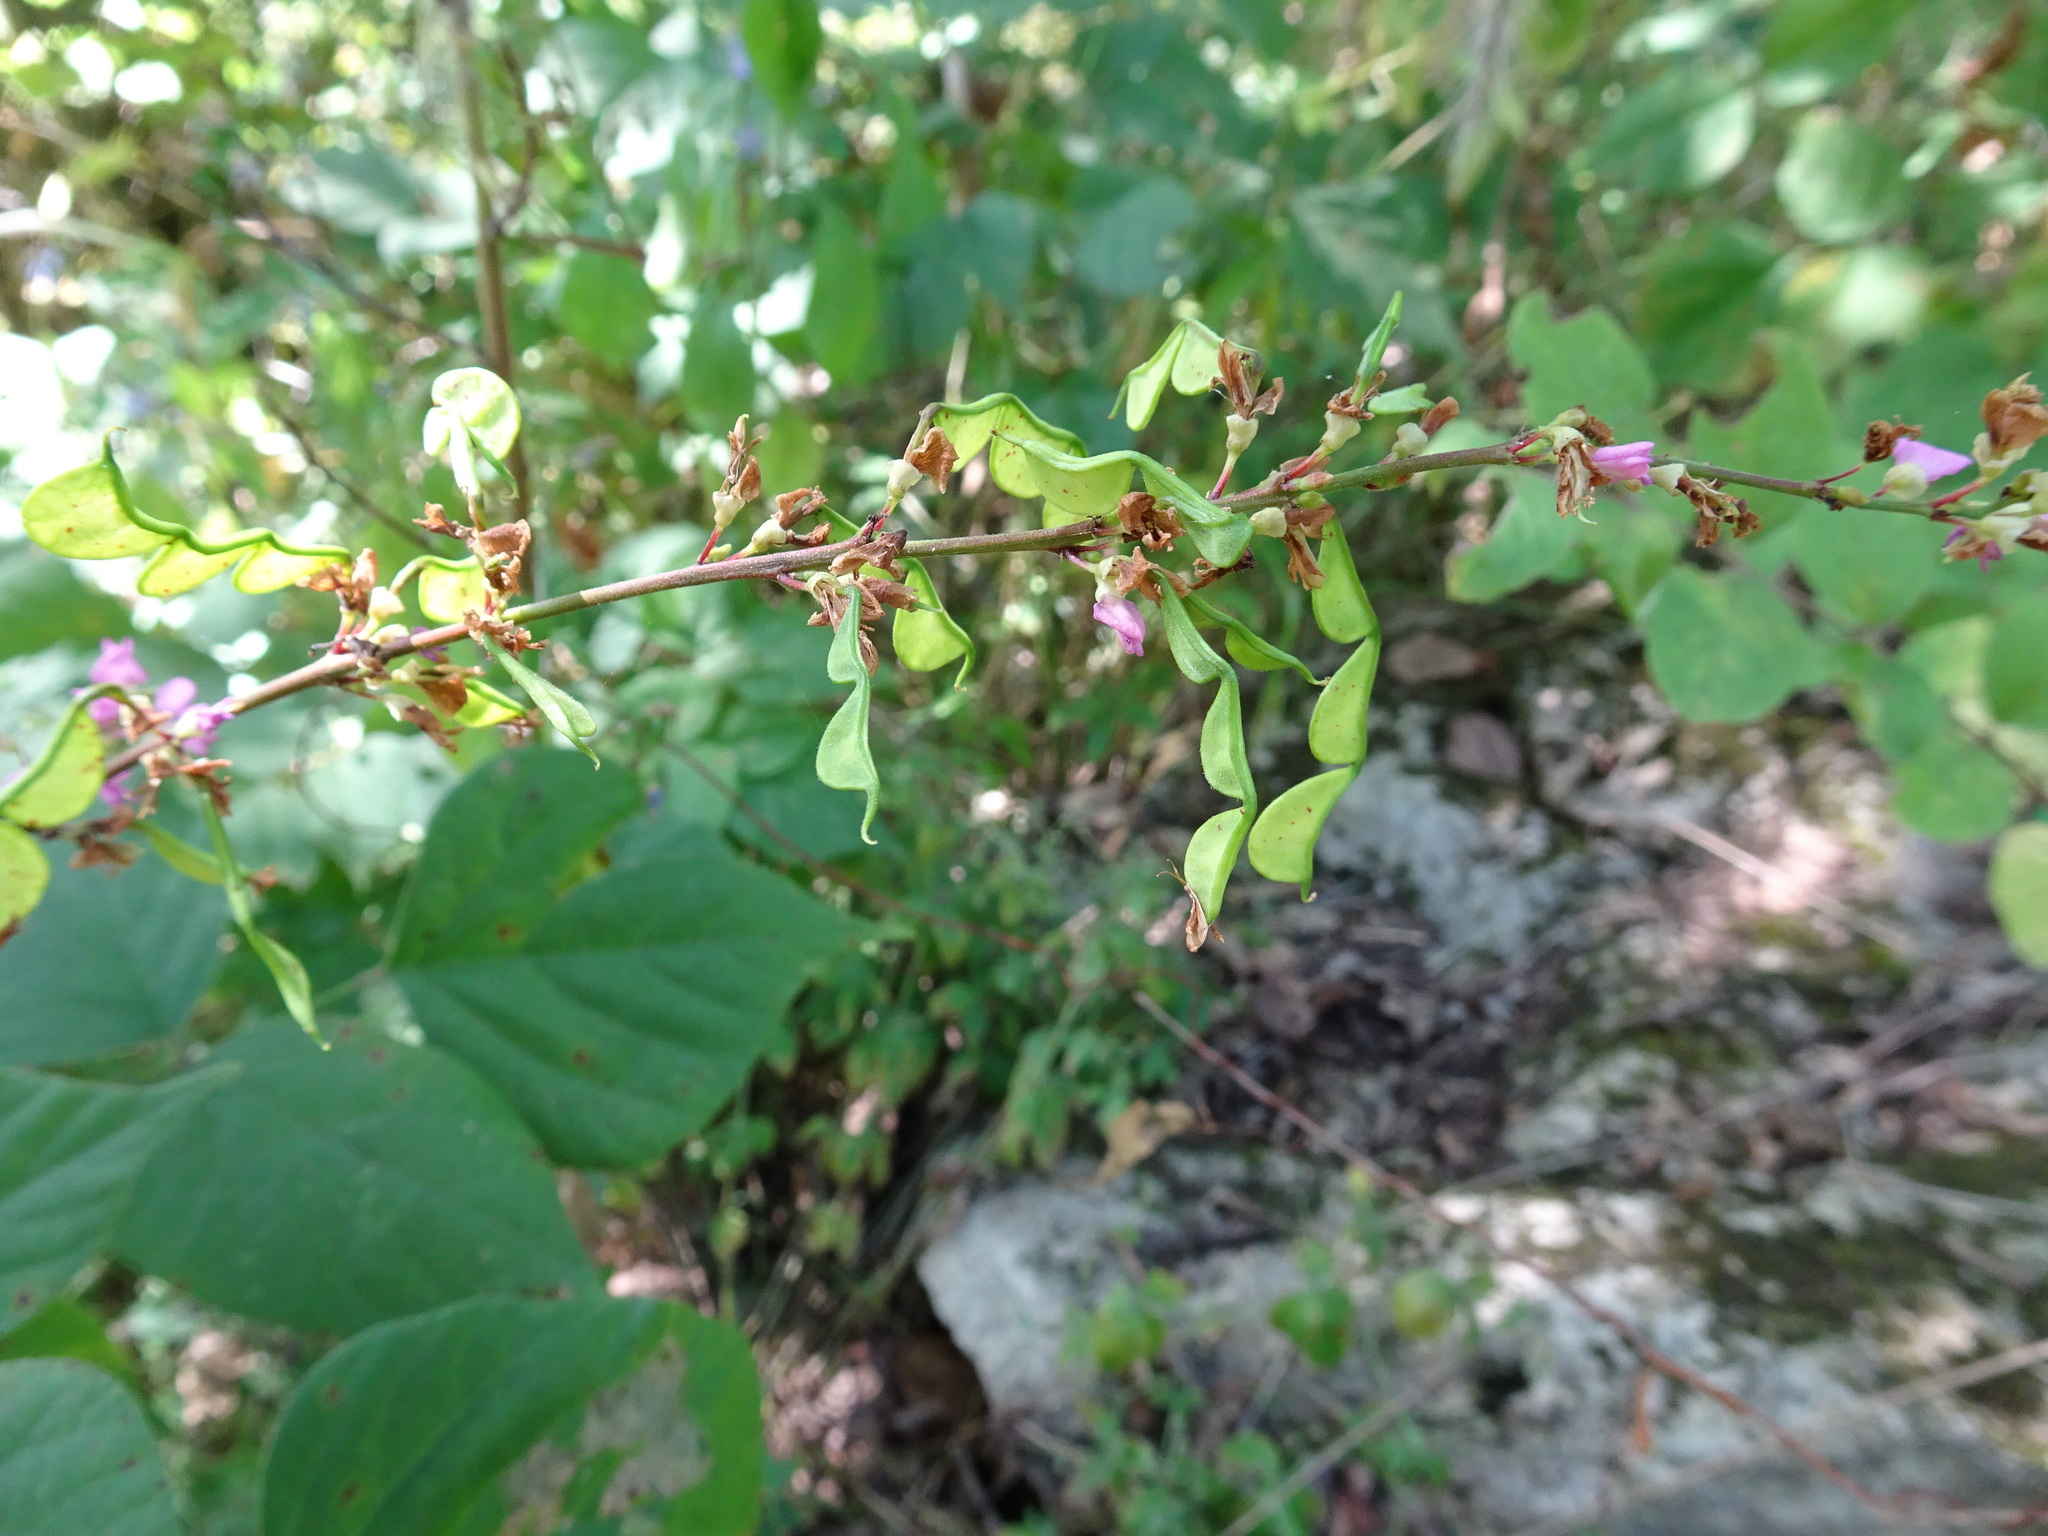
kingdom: Plantae
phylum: Tracheophyta
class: Magnoliopsida
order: Fabales
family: Fabaceae
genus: Hylodesmum
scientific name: Hylodesmum glutinosum
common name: Clustered-leaved tick-trefoil
